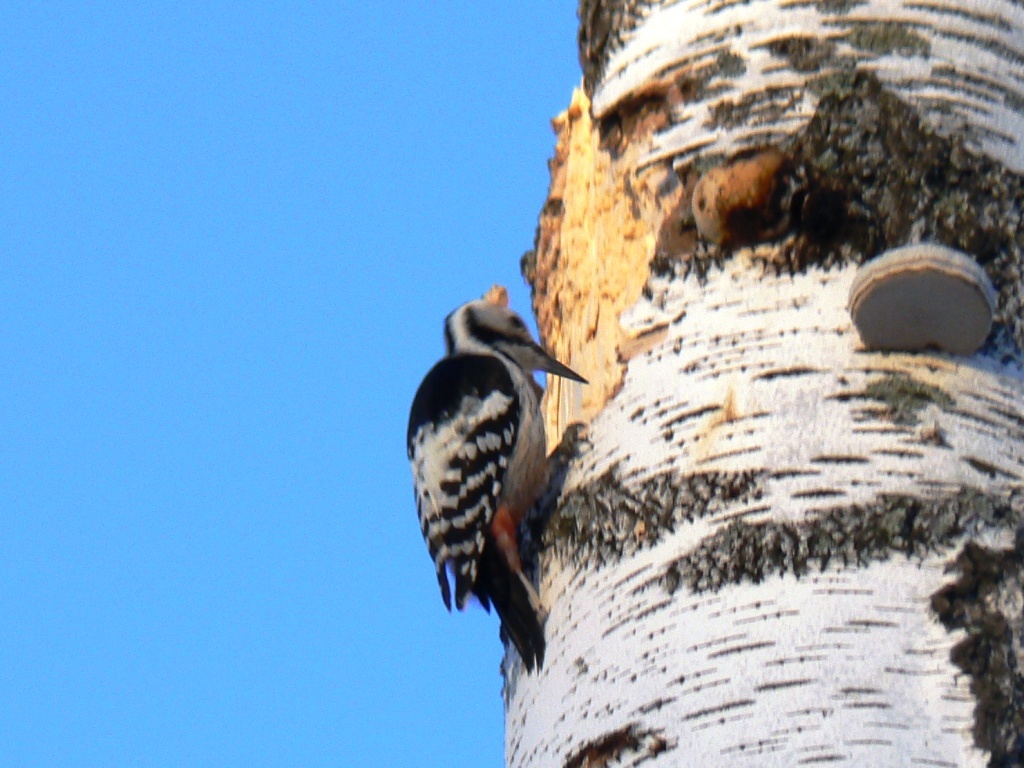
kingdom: Animalia
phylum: Chordata
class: Aves
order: Piciformes
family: Picidae
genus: Dendrocopos
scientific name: Dendrocopos leucotos
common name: White-backed woodpecker
